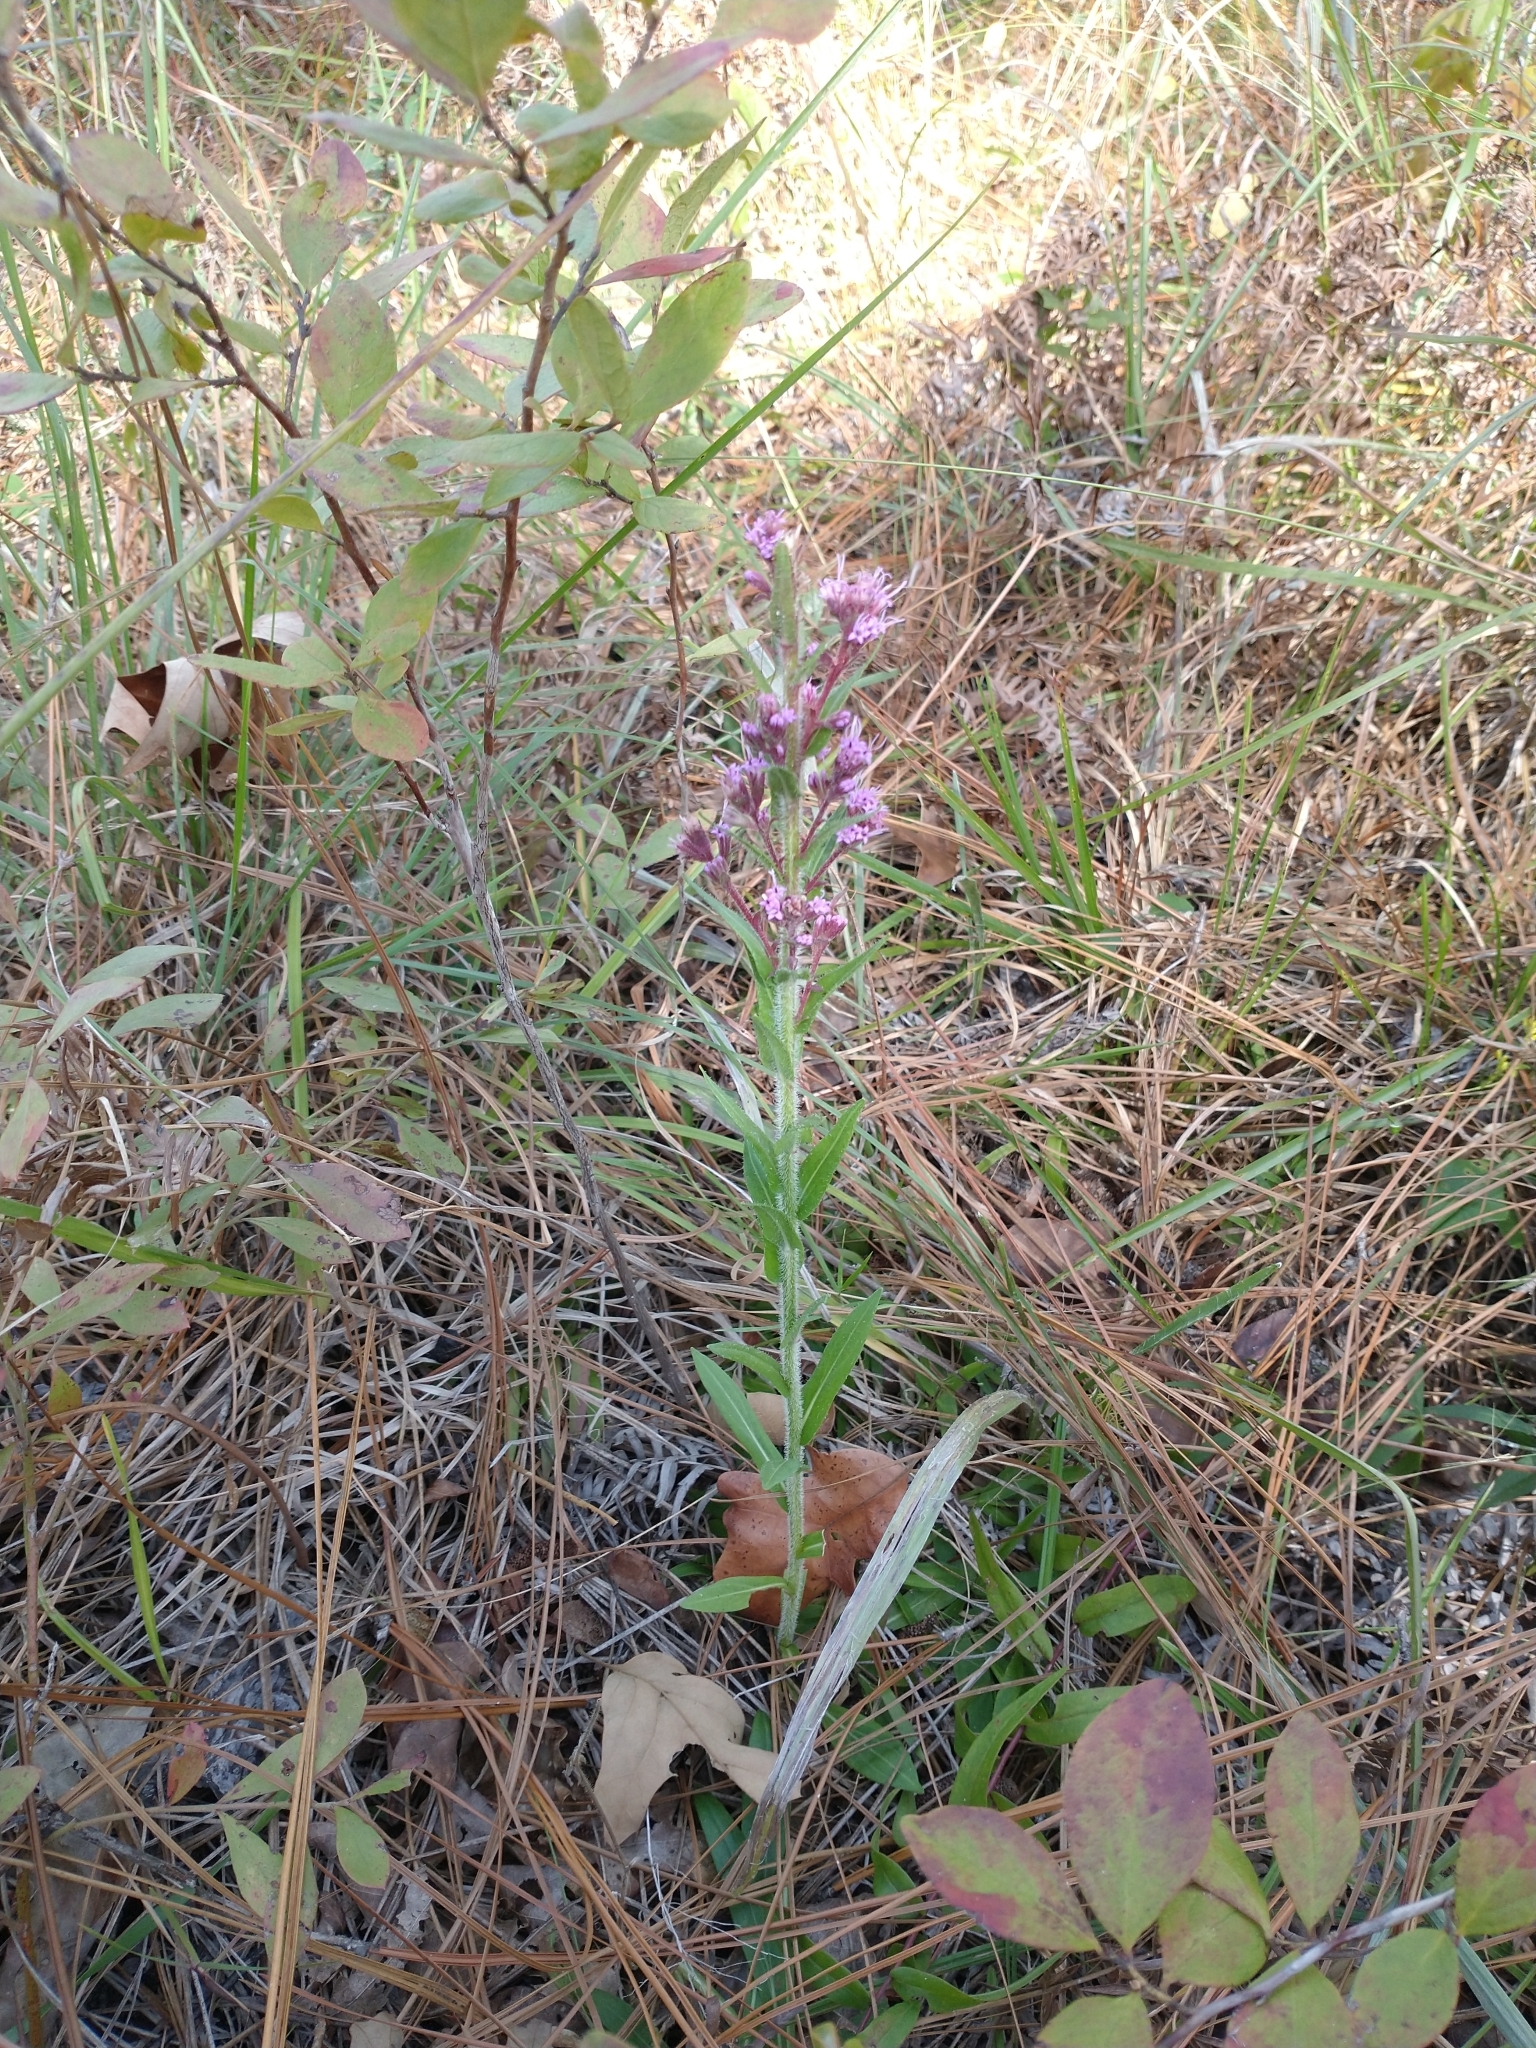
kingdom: Plantae
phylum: Tracheophyta
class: Magnoliopsida
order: Asterales
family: Asteraceae
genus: Carphephorus
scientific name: Carphephorus paniculatus
